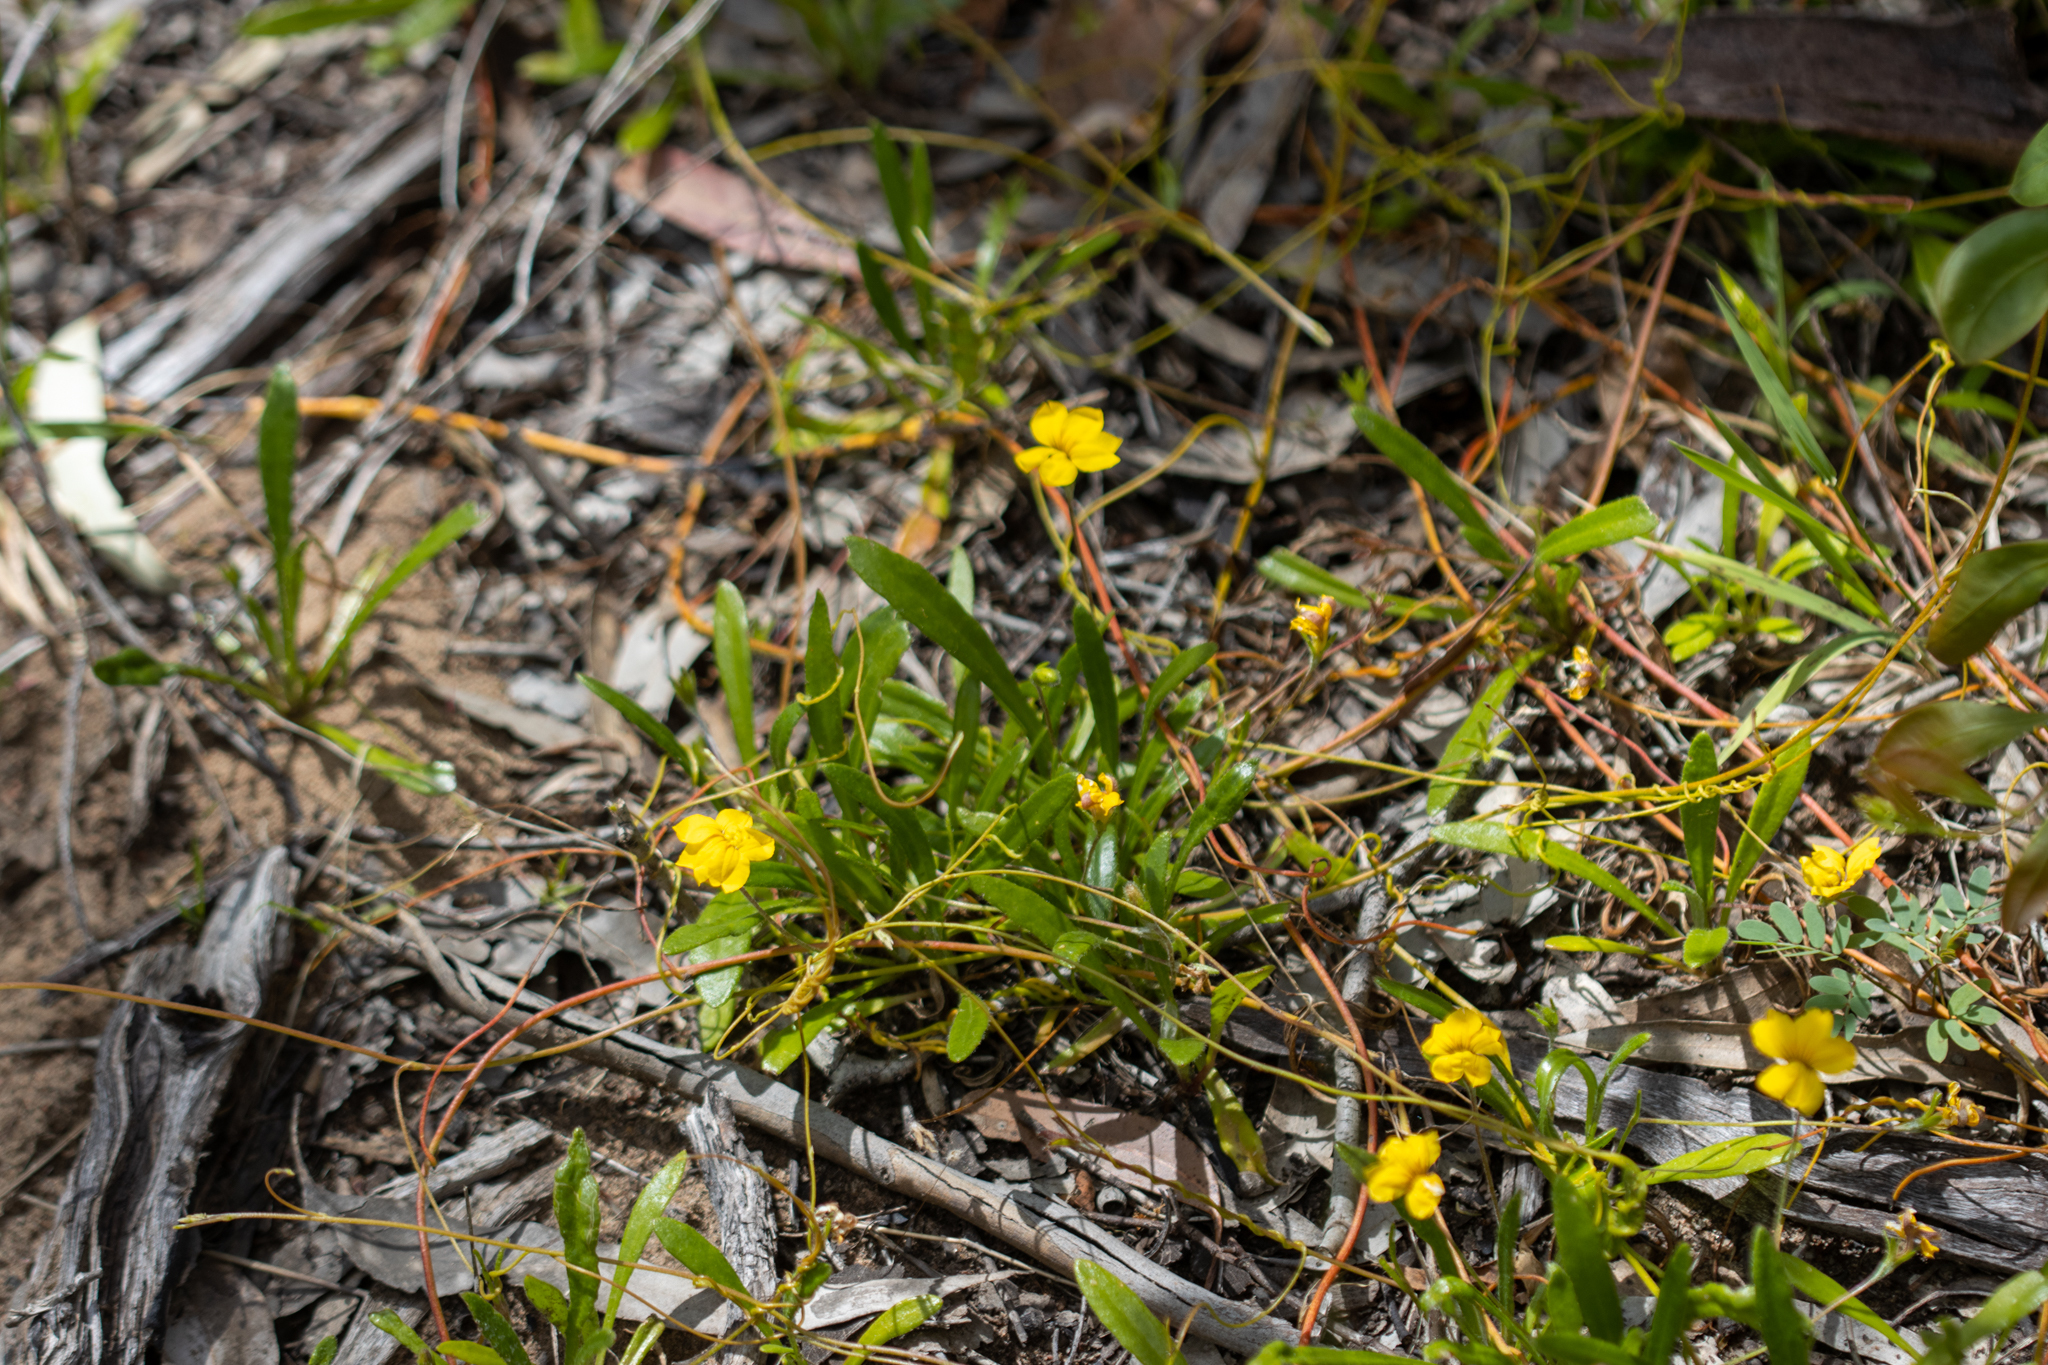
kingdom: Plantae
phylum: Tracheophyta
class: Magnoliopsida
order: Asterales
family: Goodeniaceae
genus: Goodenia
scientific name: Goodenia geniculata
